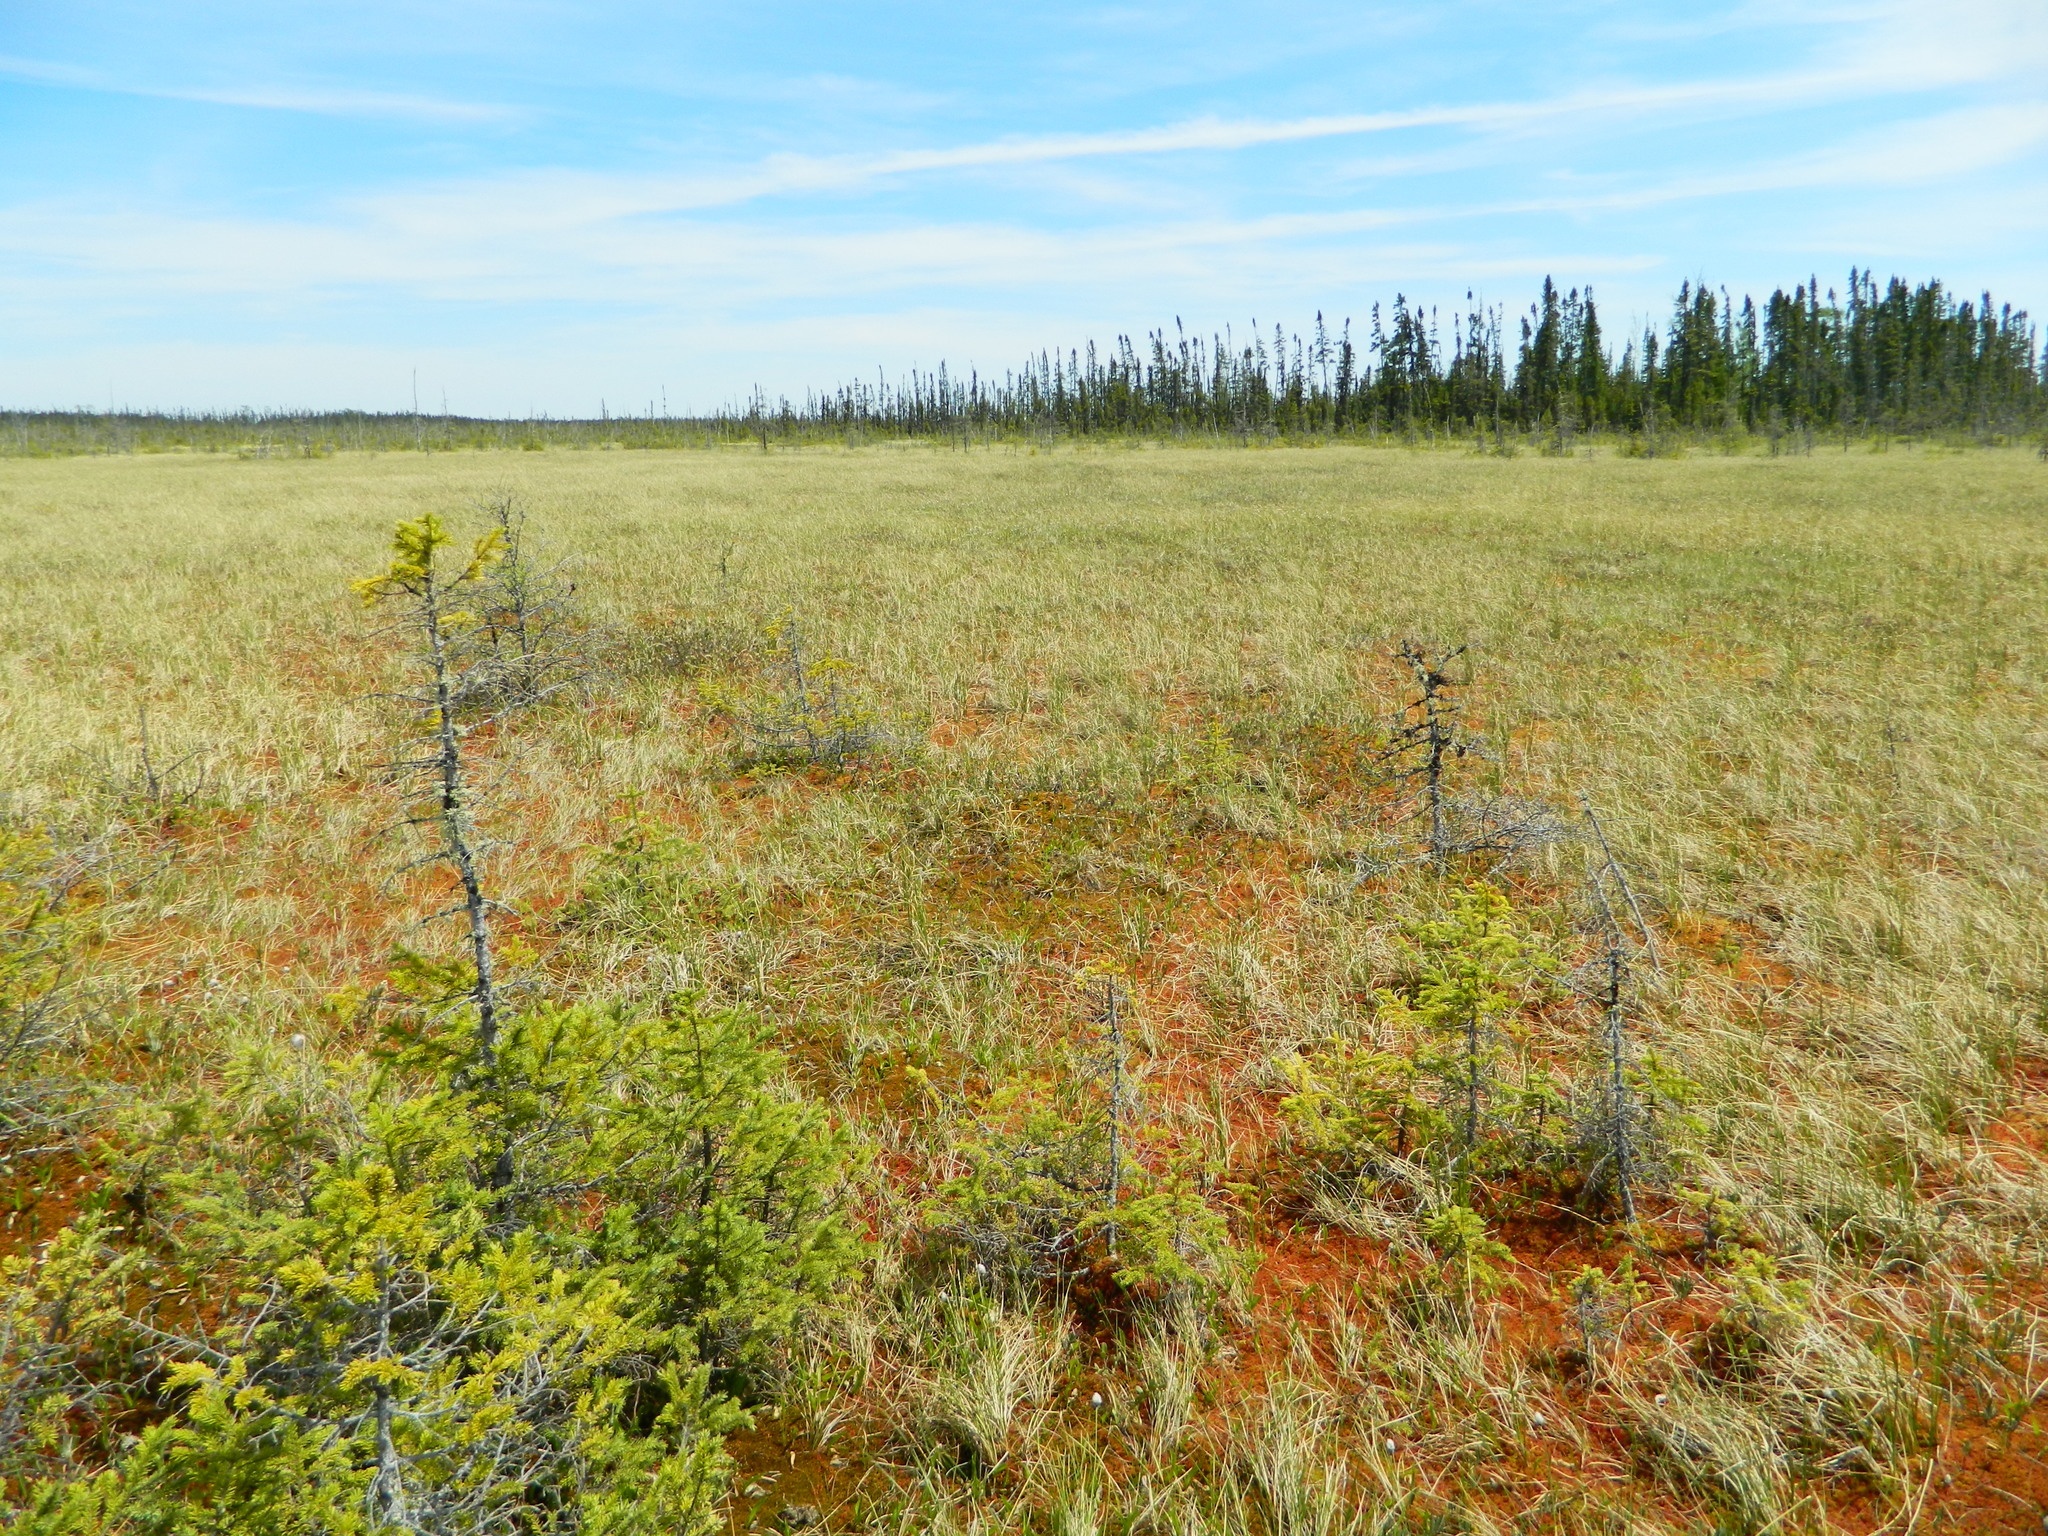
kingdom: Plantae
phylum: Tracheophyta
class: Pinopsida
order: Pinales
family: Pinaceae
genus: Picea
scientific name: Picea mariana
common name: Black spruce
